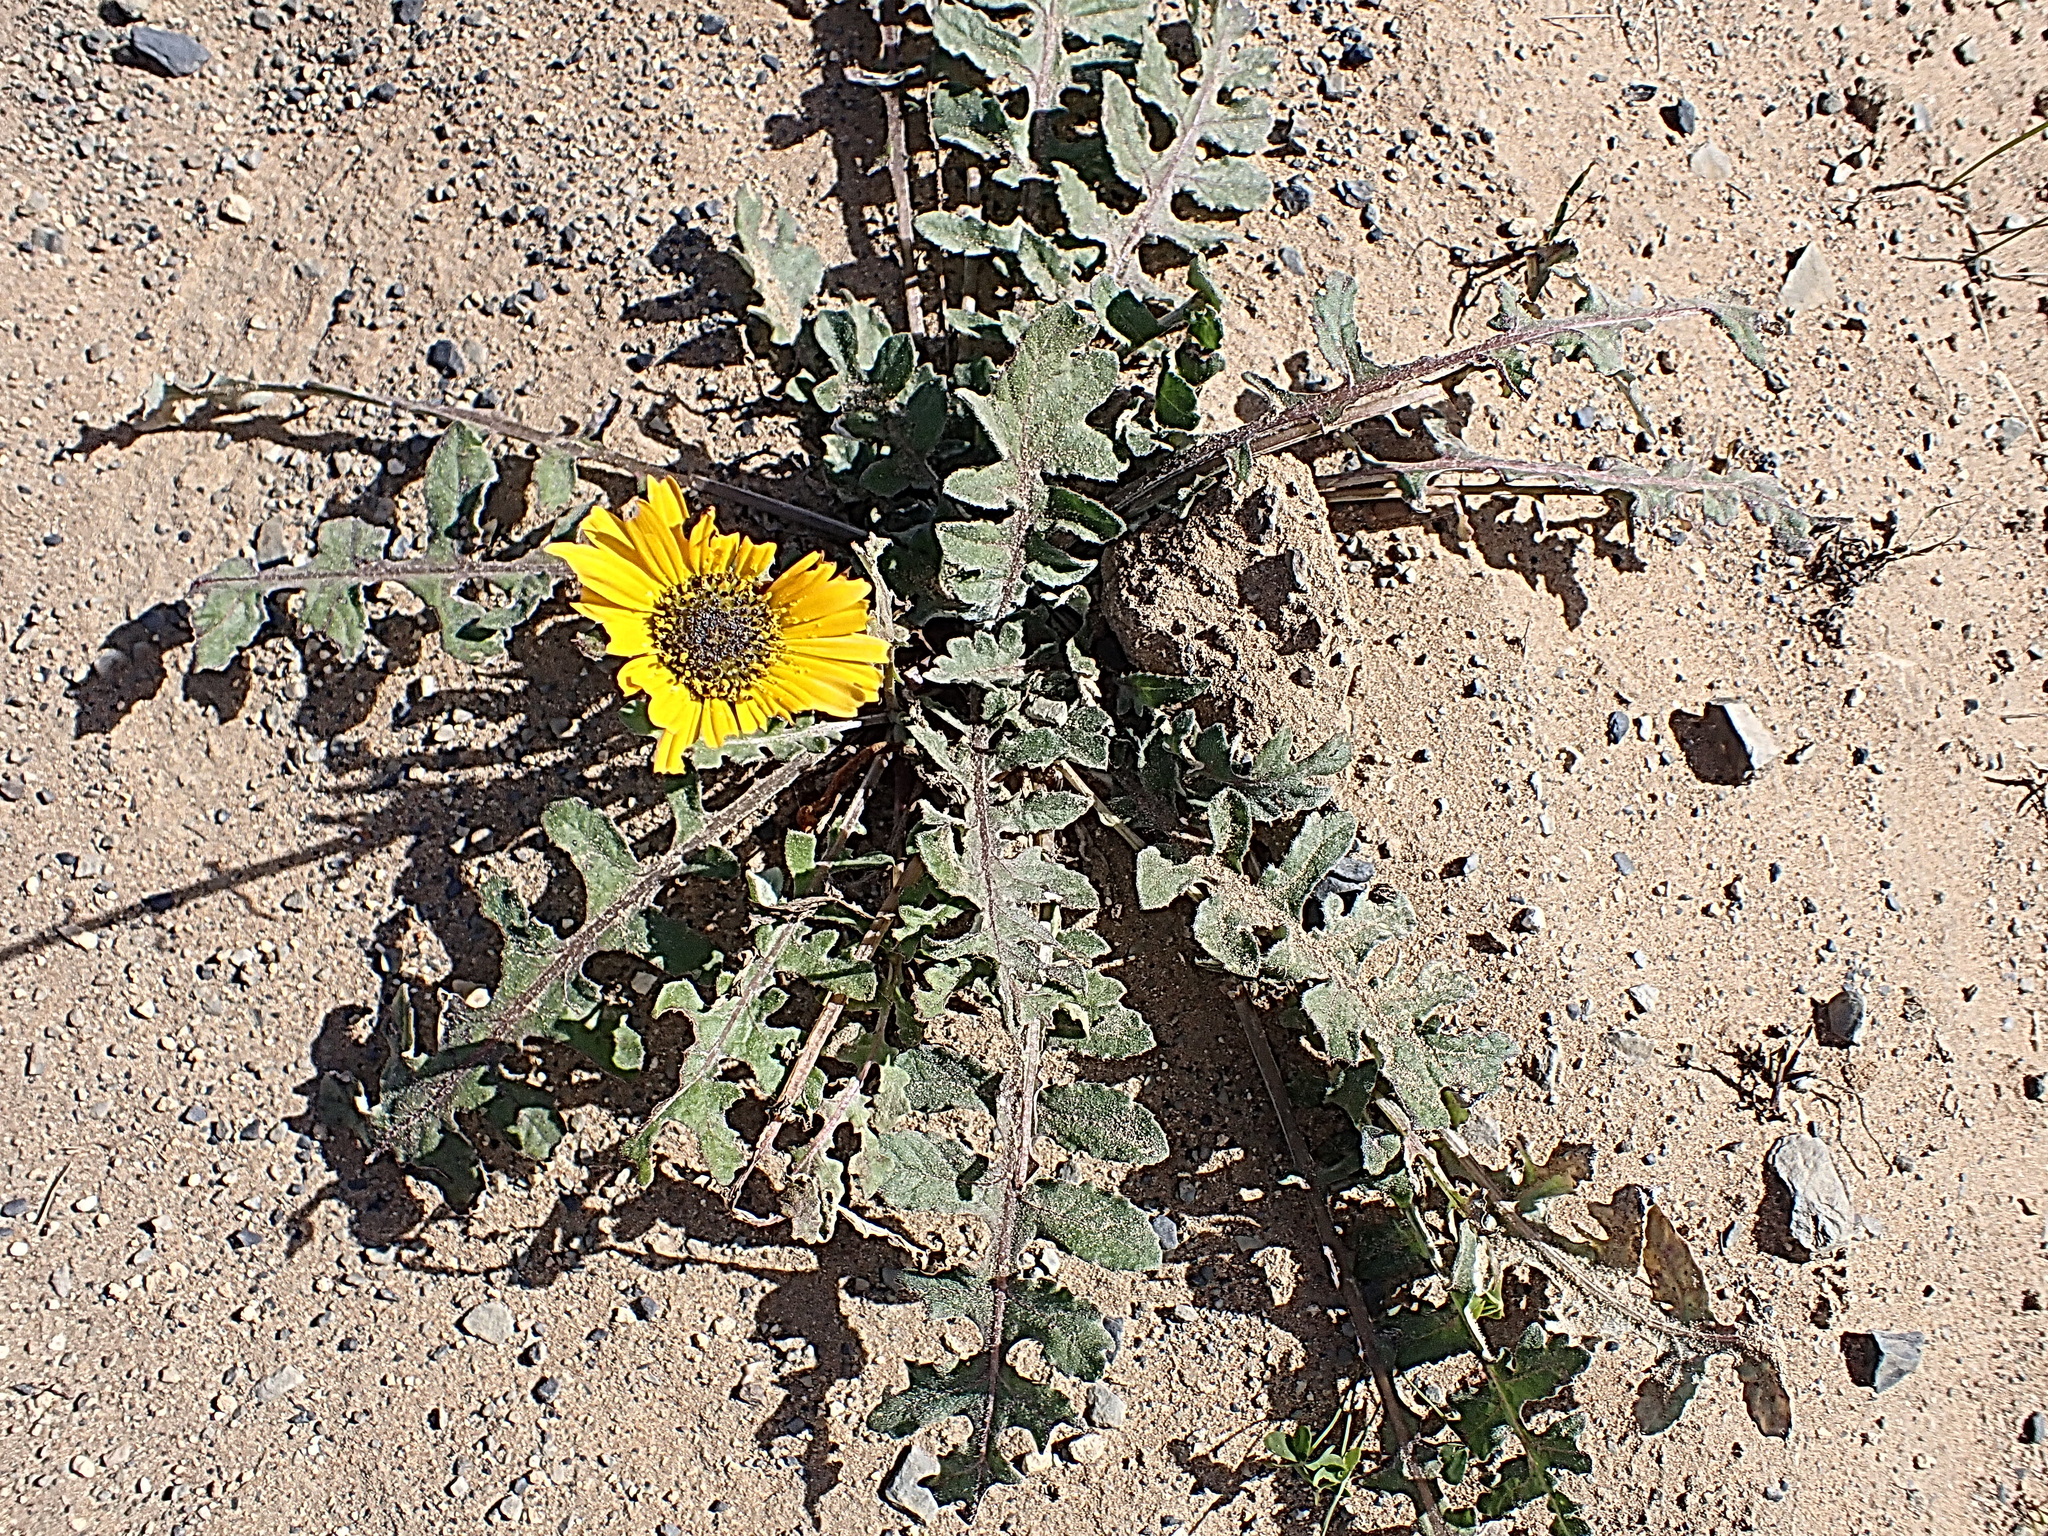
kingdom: Plantae
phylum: Tracheophyta
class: Magnoliopsida
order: Asterales
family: Asteraceae
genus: Arctotis
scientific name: Arctotis acaulis
